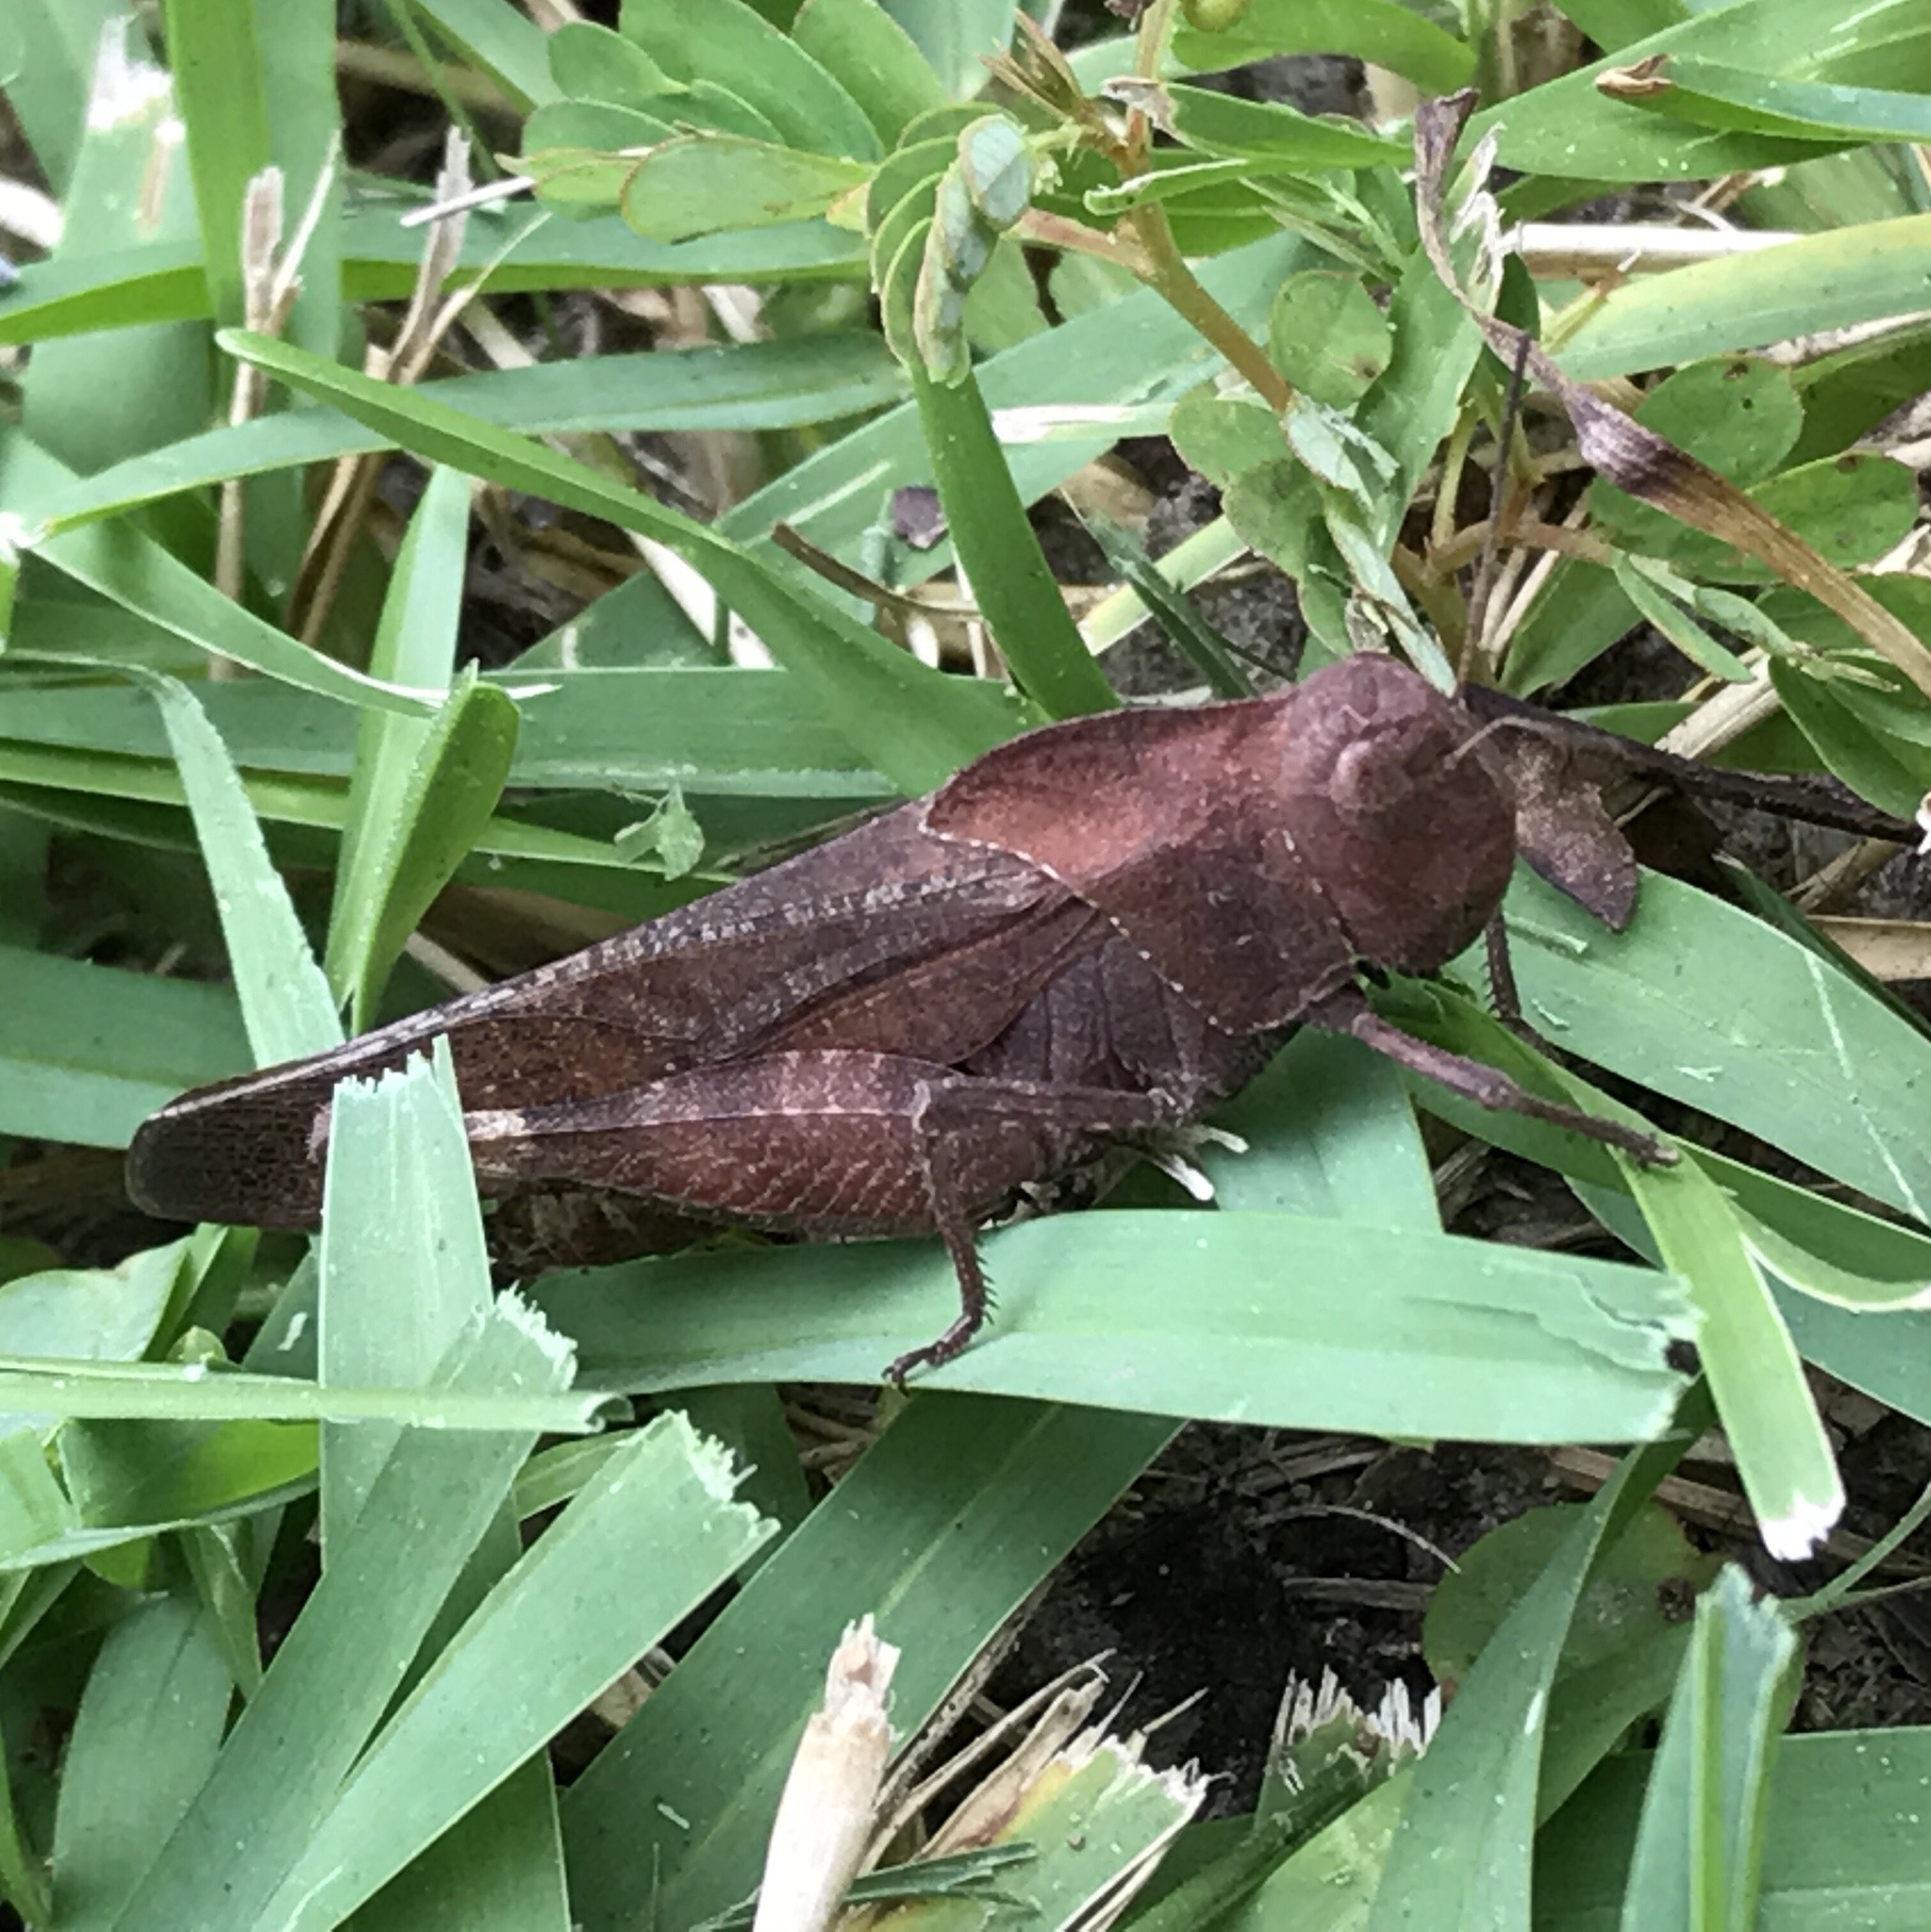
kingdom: Animalia
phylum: Arthropoda
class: Insecta
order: Orthoptera
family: Acrididae
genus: Arphia
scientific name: Arphia xanthoptera
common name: Autumn yellow-winged grasshopper
